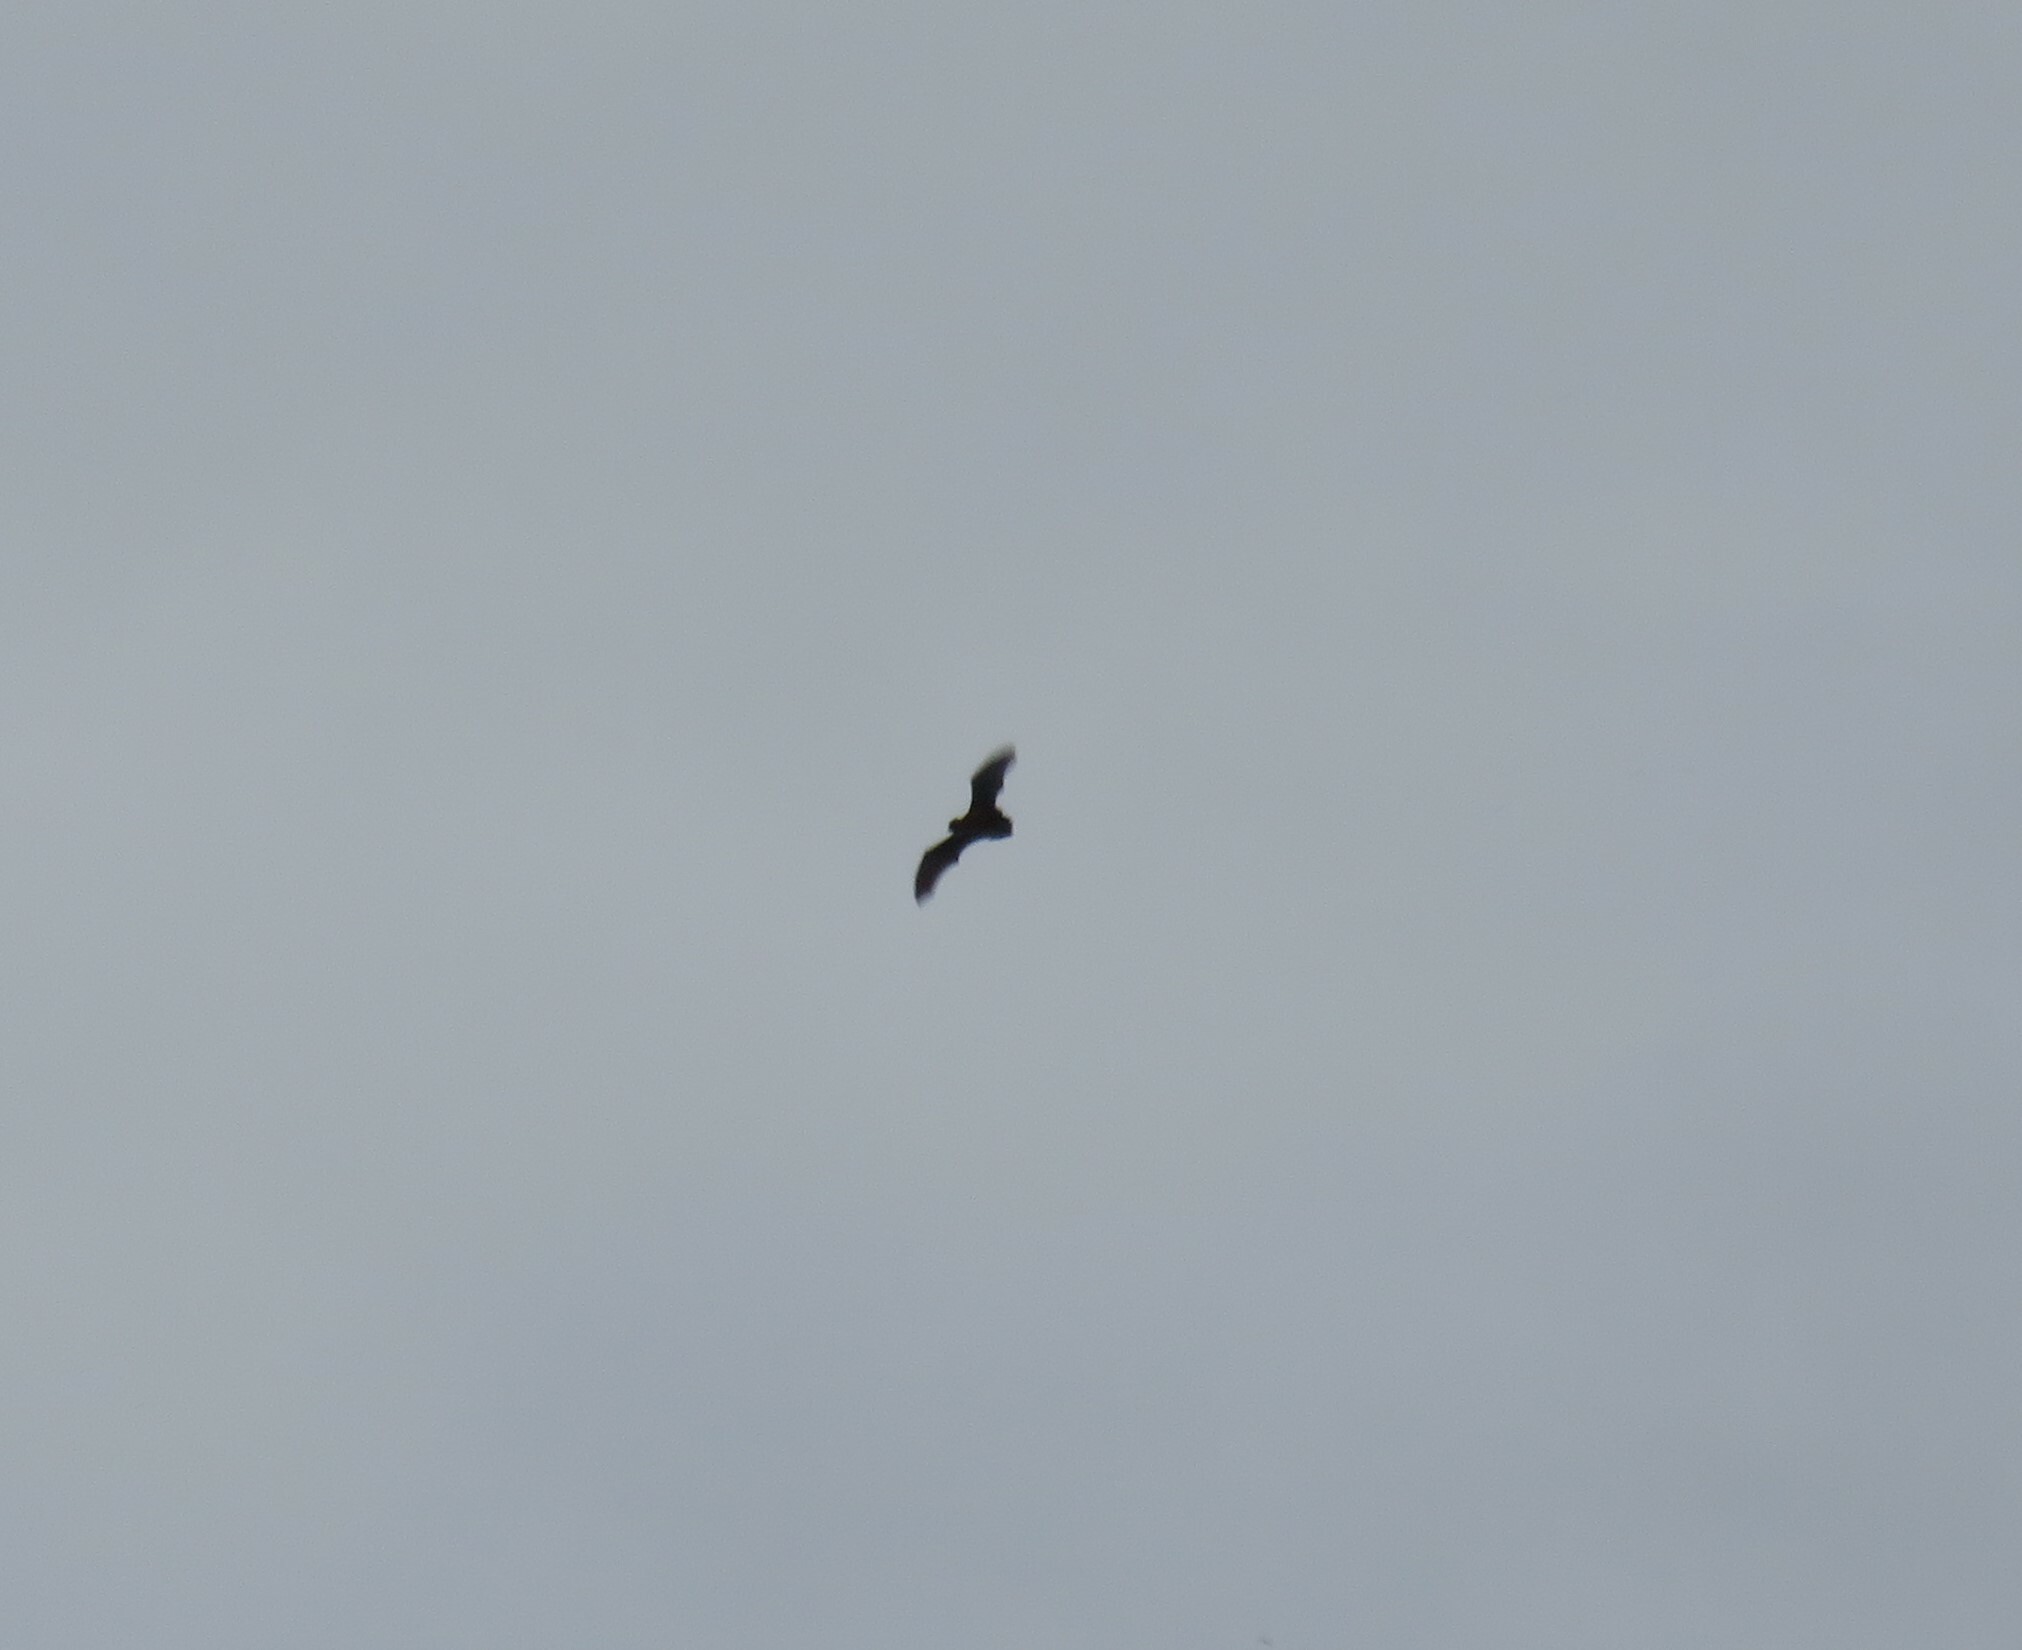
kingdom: Animalia
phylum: Chordata
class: Mammalia
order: Chiroptera
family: Vespertilionidae
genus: Nyctalus
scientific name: Nyctalus azoreum
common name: Azores noctule
